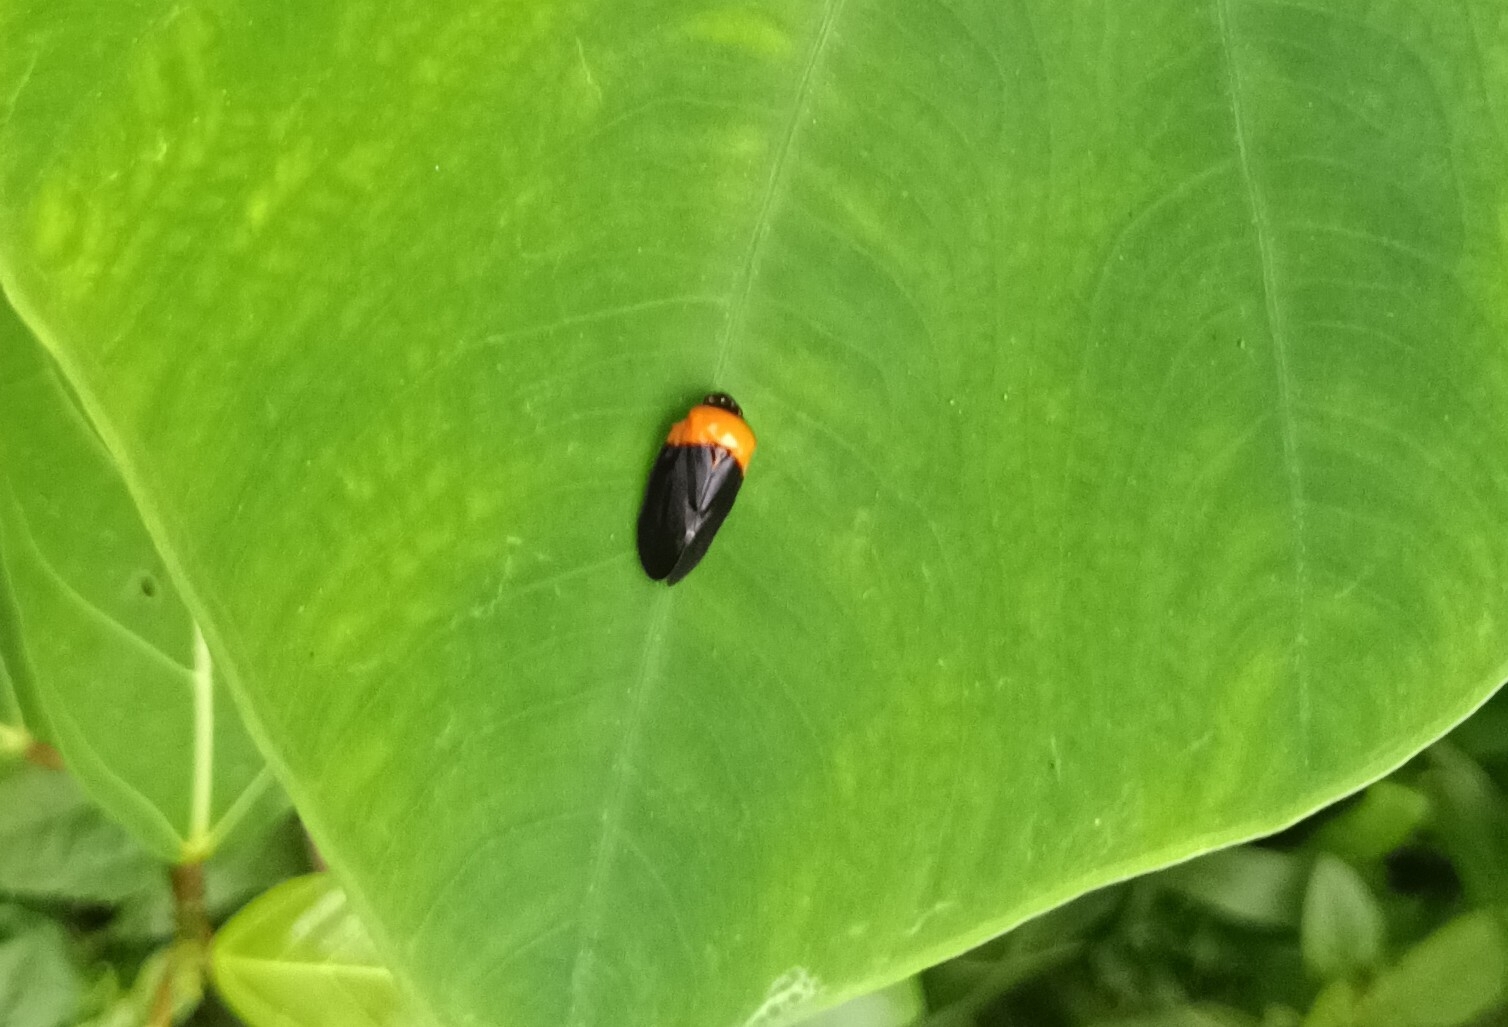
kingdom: Animalia
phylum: Arthropoda
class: Insecta
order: Hemiptera
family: Cercopidae
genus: Phymatostetha
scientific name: Phymatostetha deschampsi
